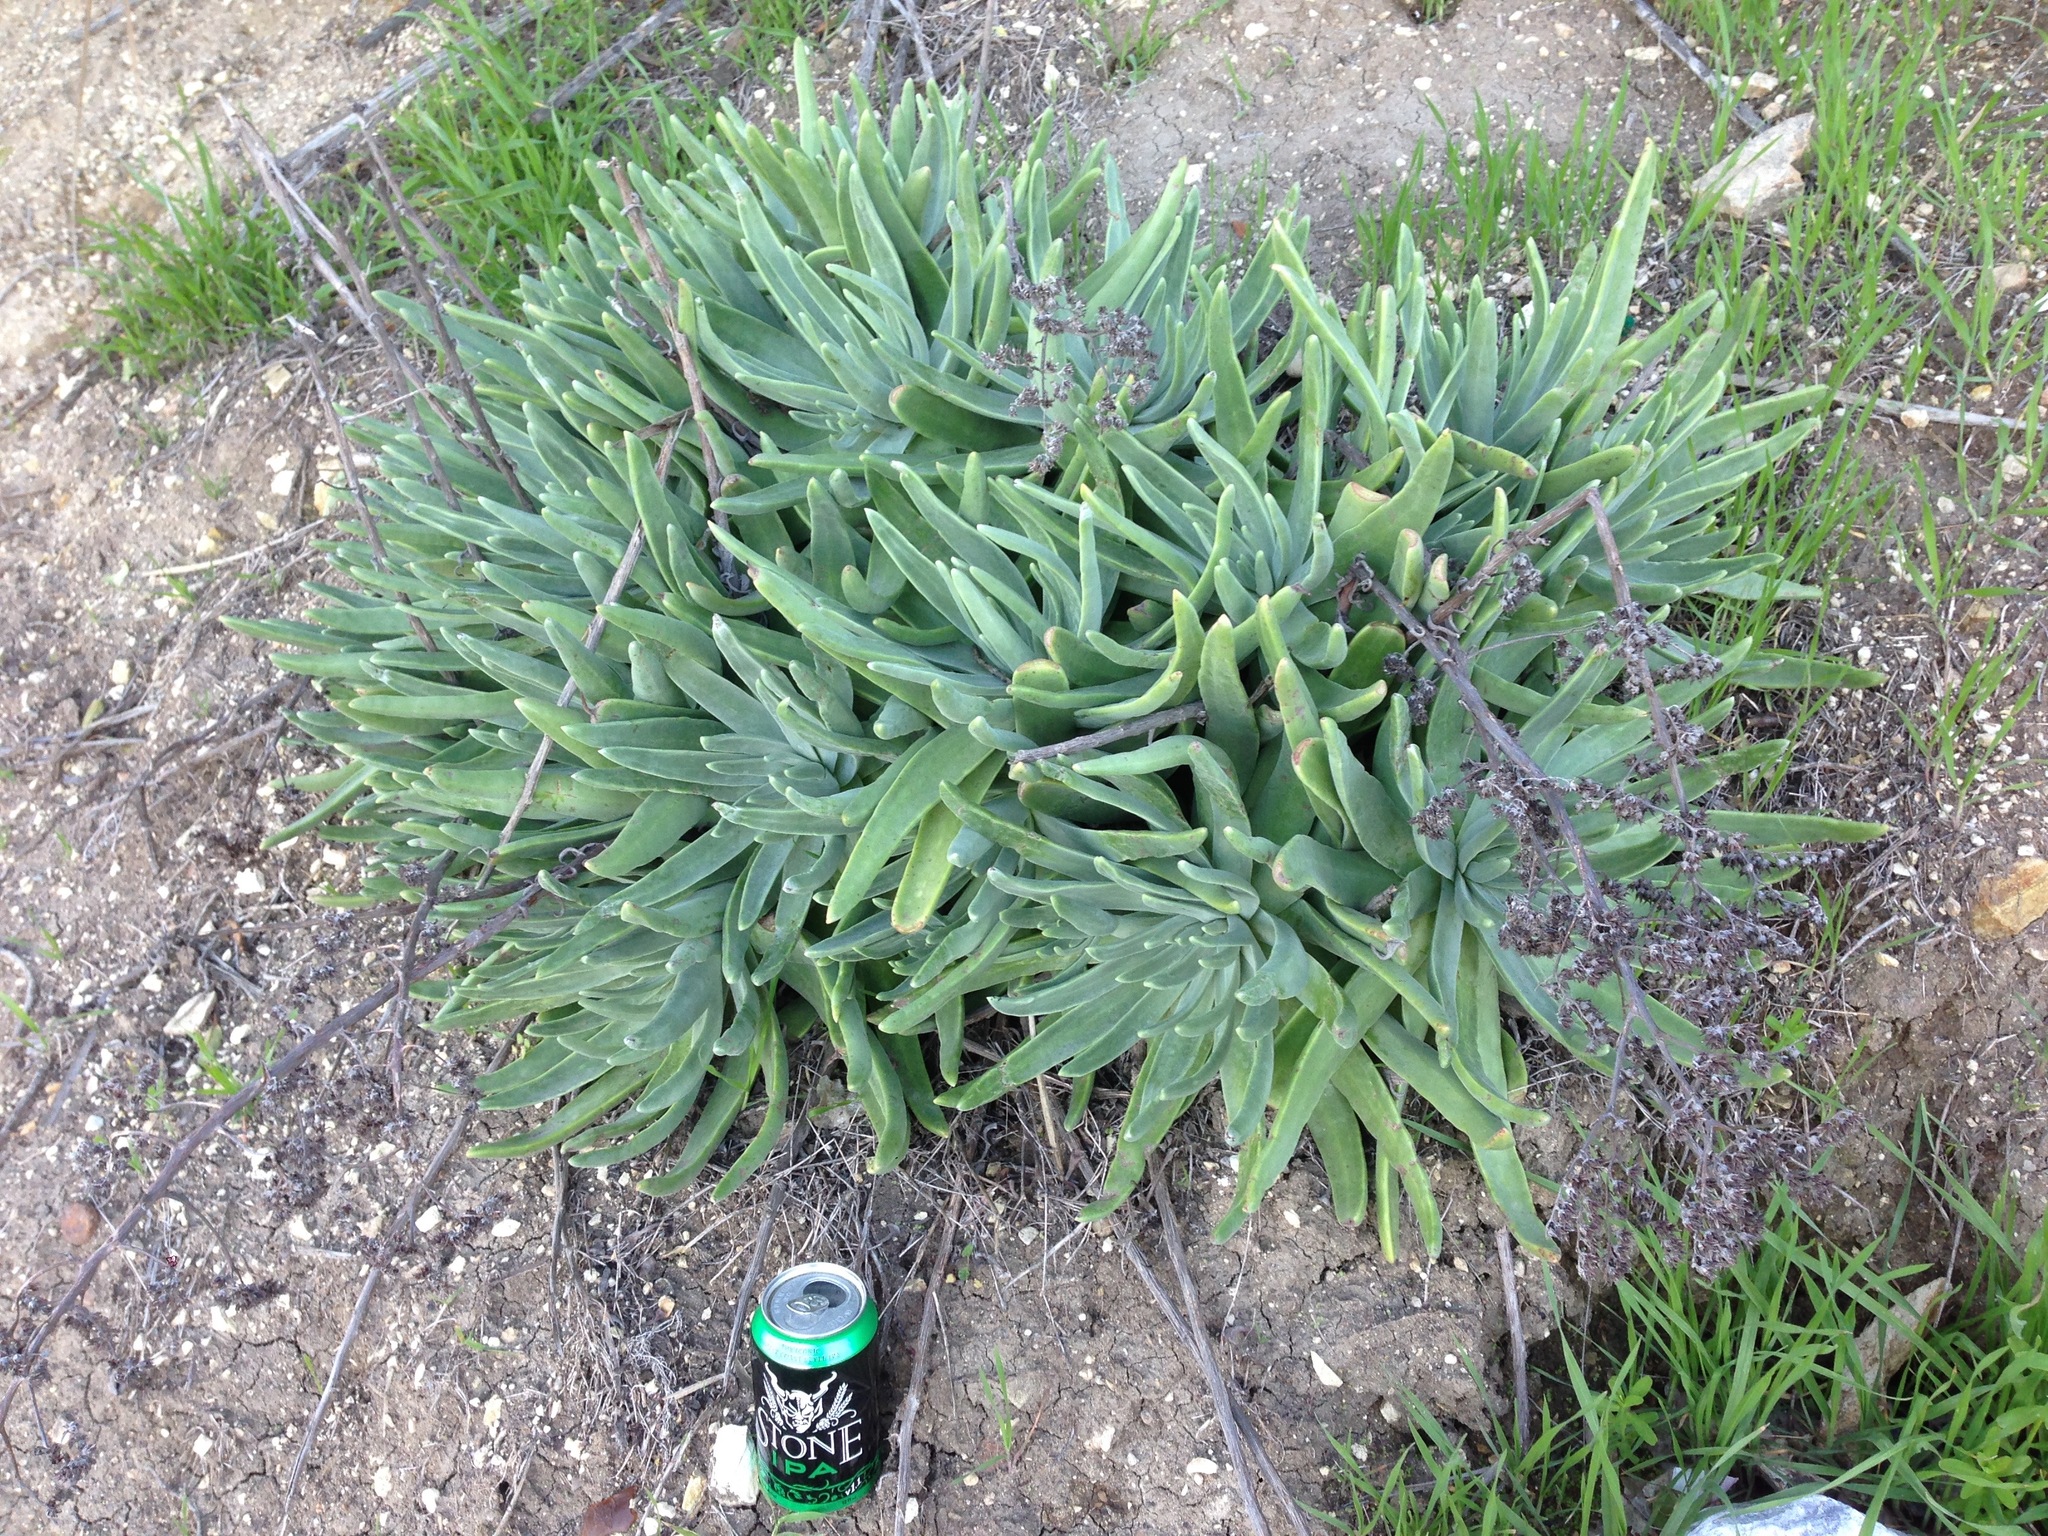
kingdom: Plantae
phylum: Tracheophyta
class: Magnoliopsida
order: Saxifragales
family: Crassulaceae
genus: Dudleya
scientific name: Dudleya virens
